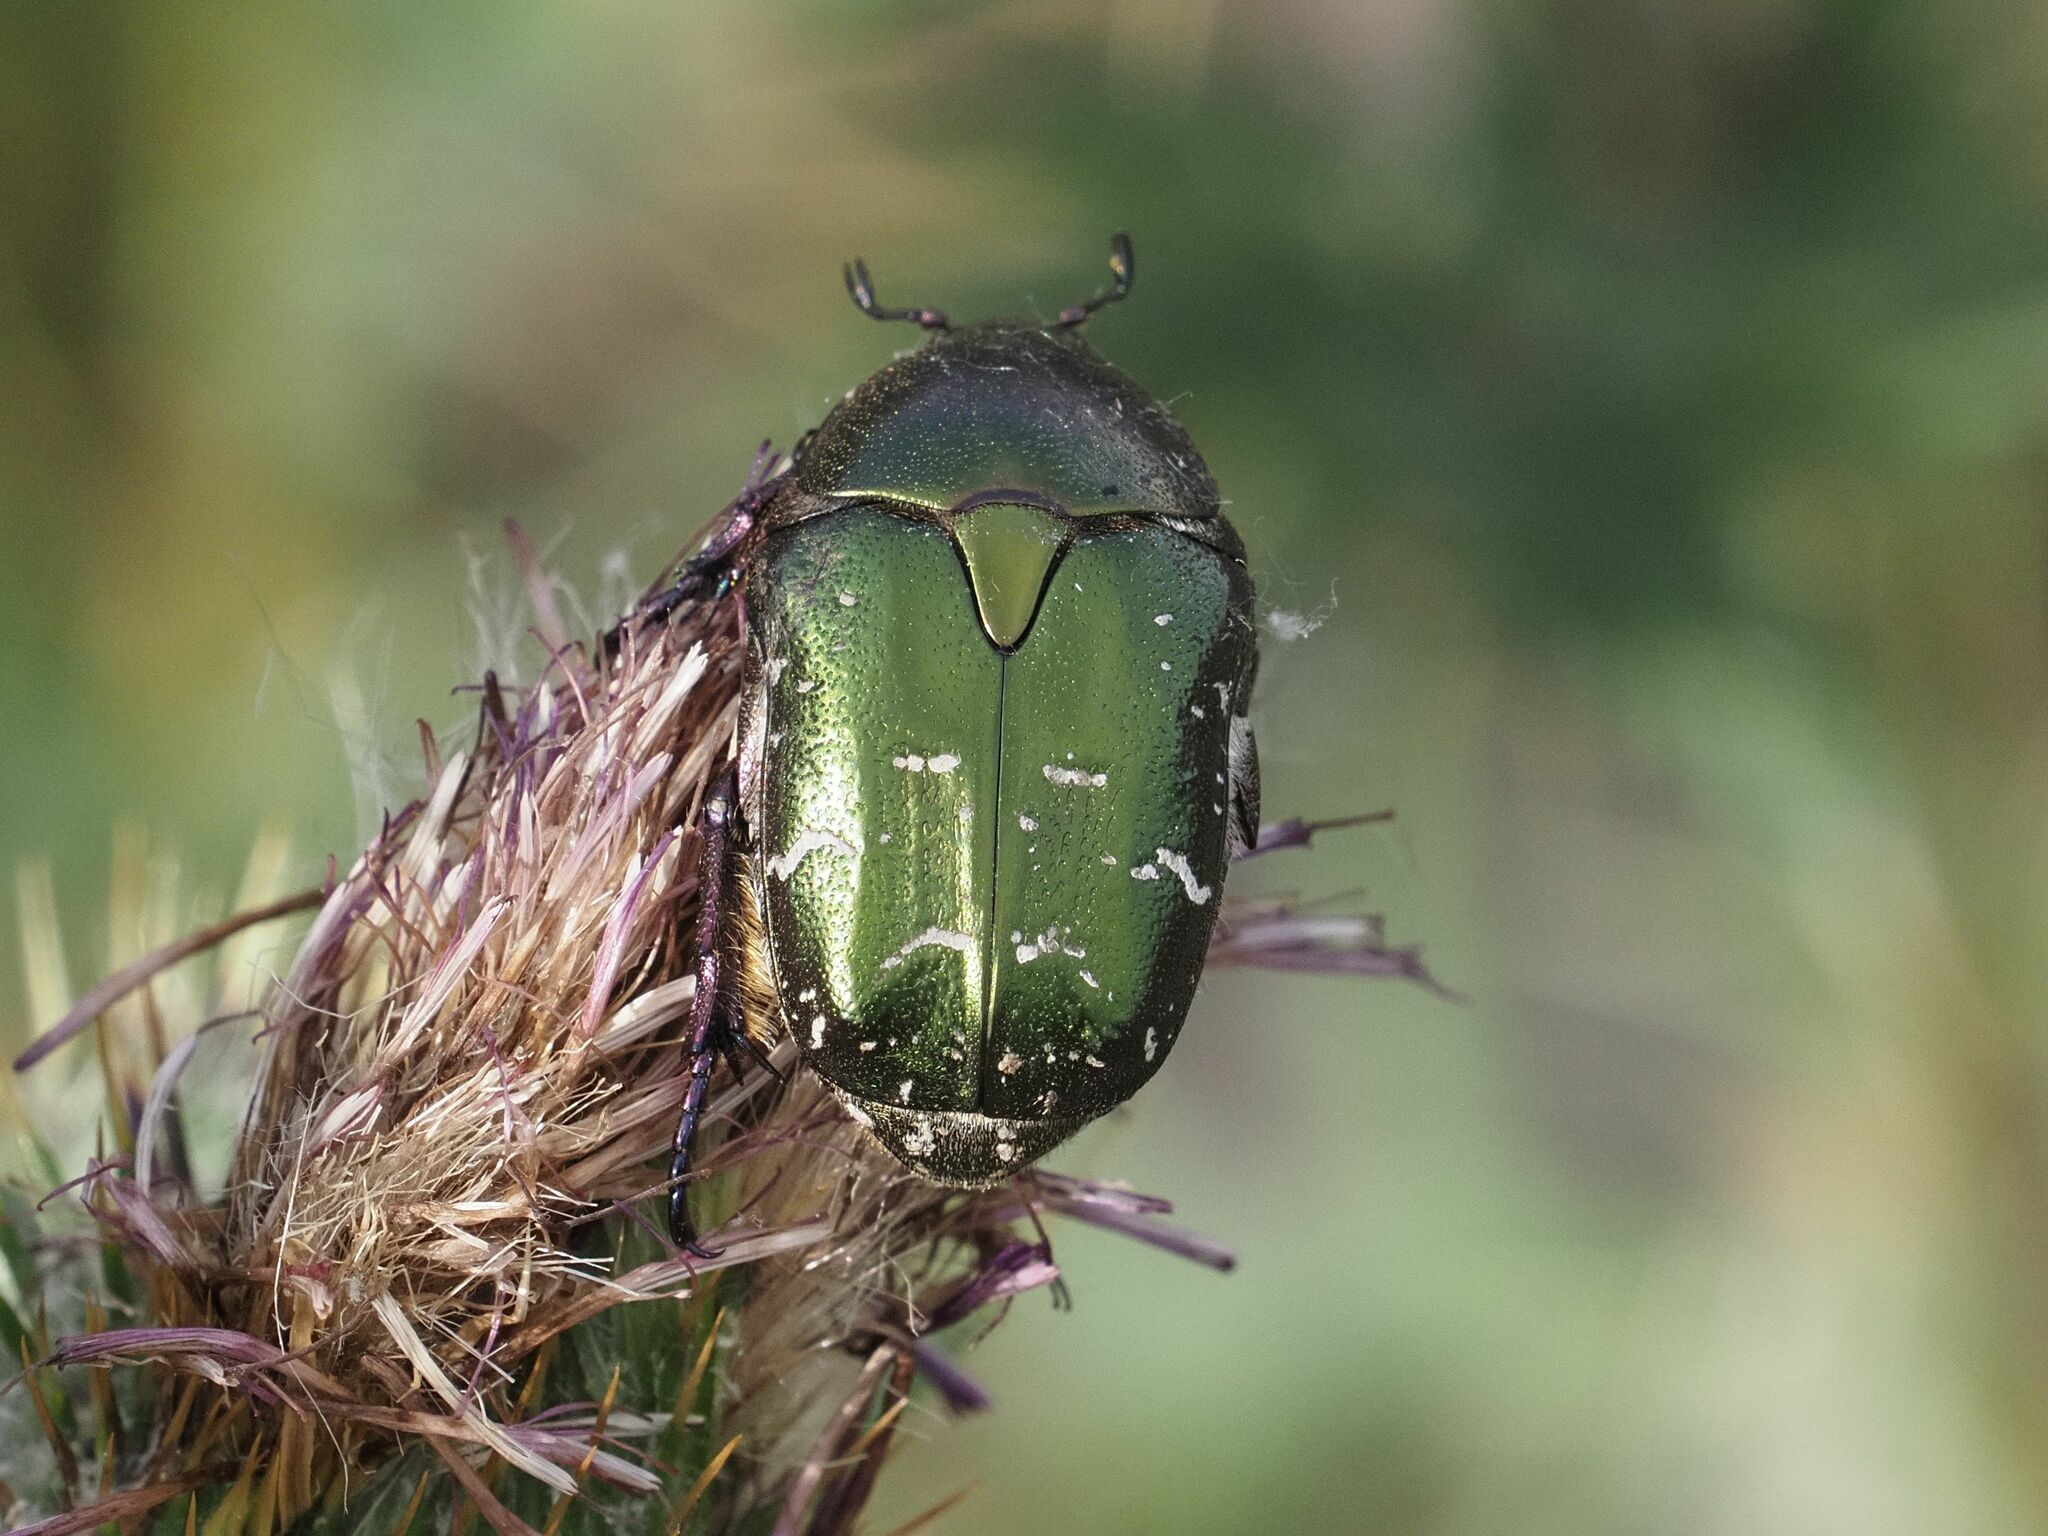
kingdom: Animalia
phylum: Arthropoda
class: Insecta
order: Coleoptera
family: Scarabaeidae
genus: Protaetia
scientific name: Protaetia cuprea
